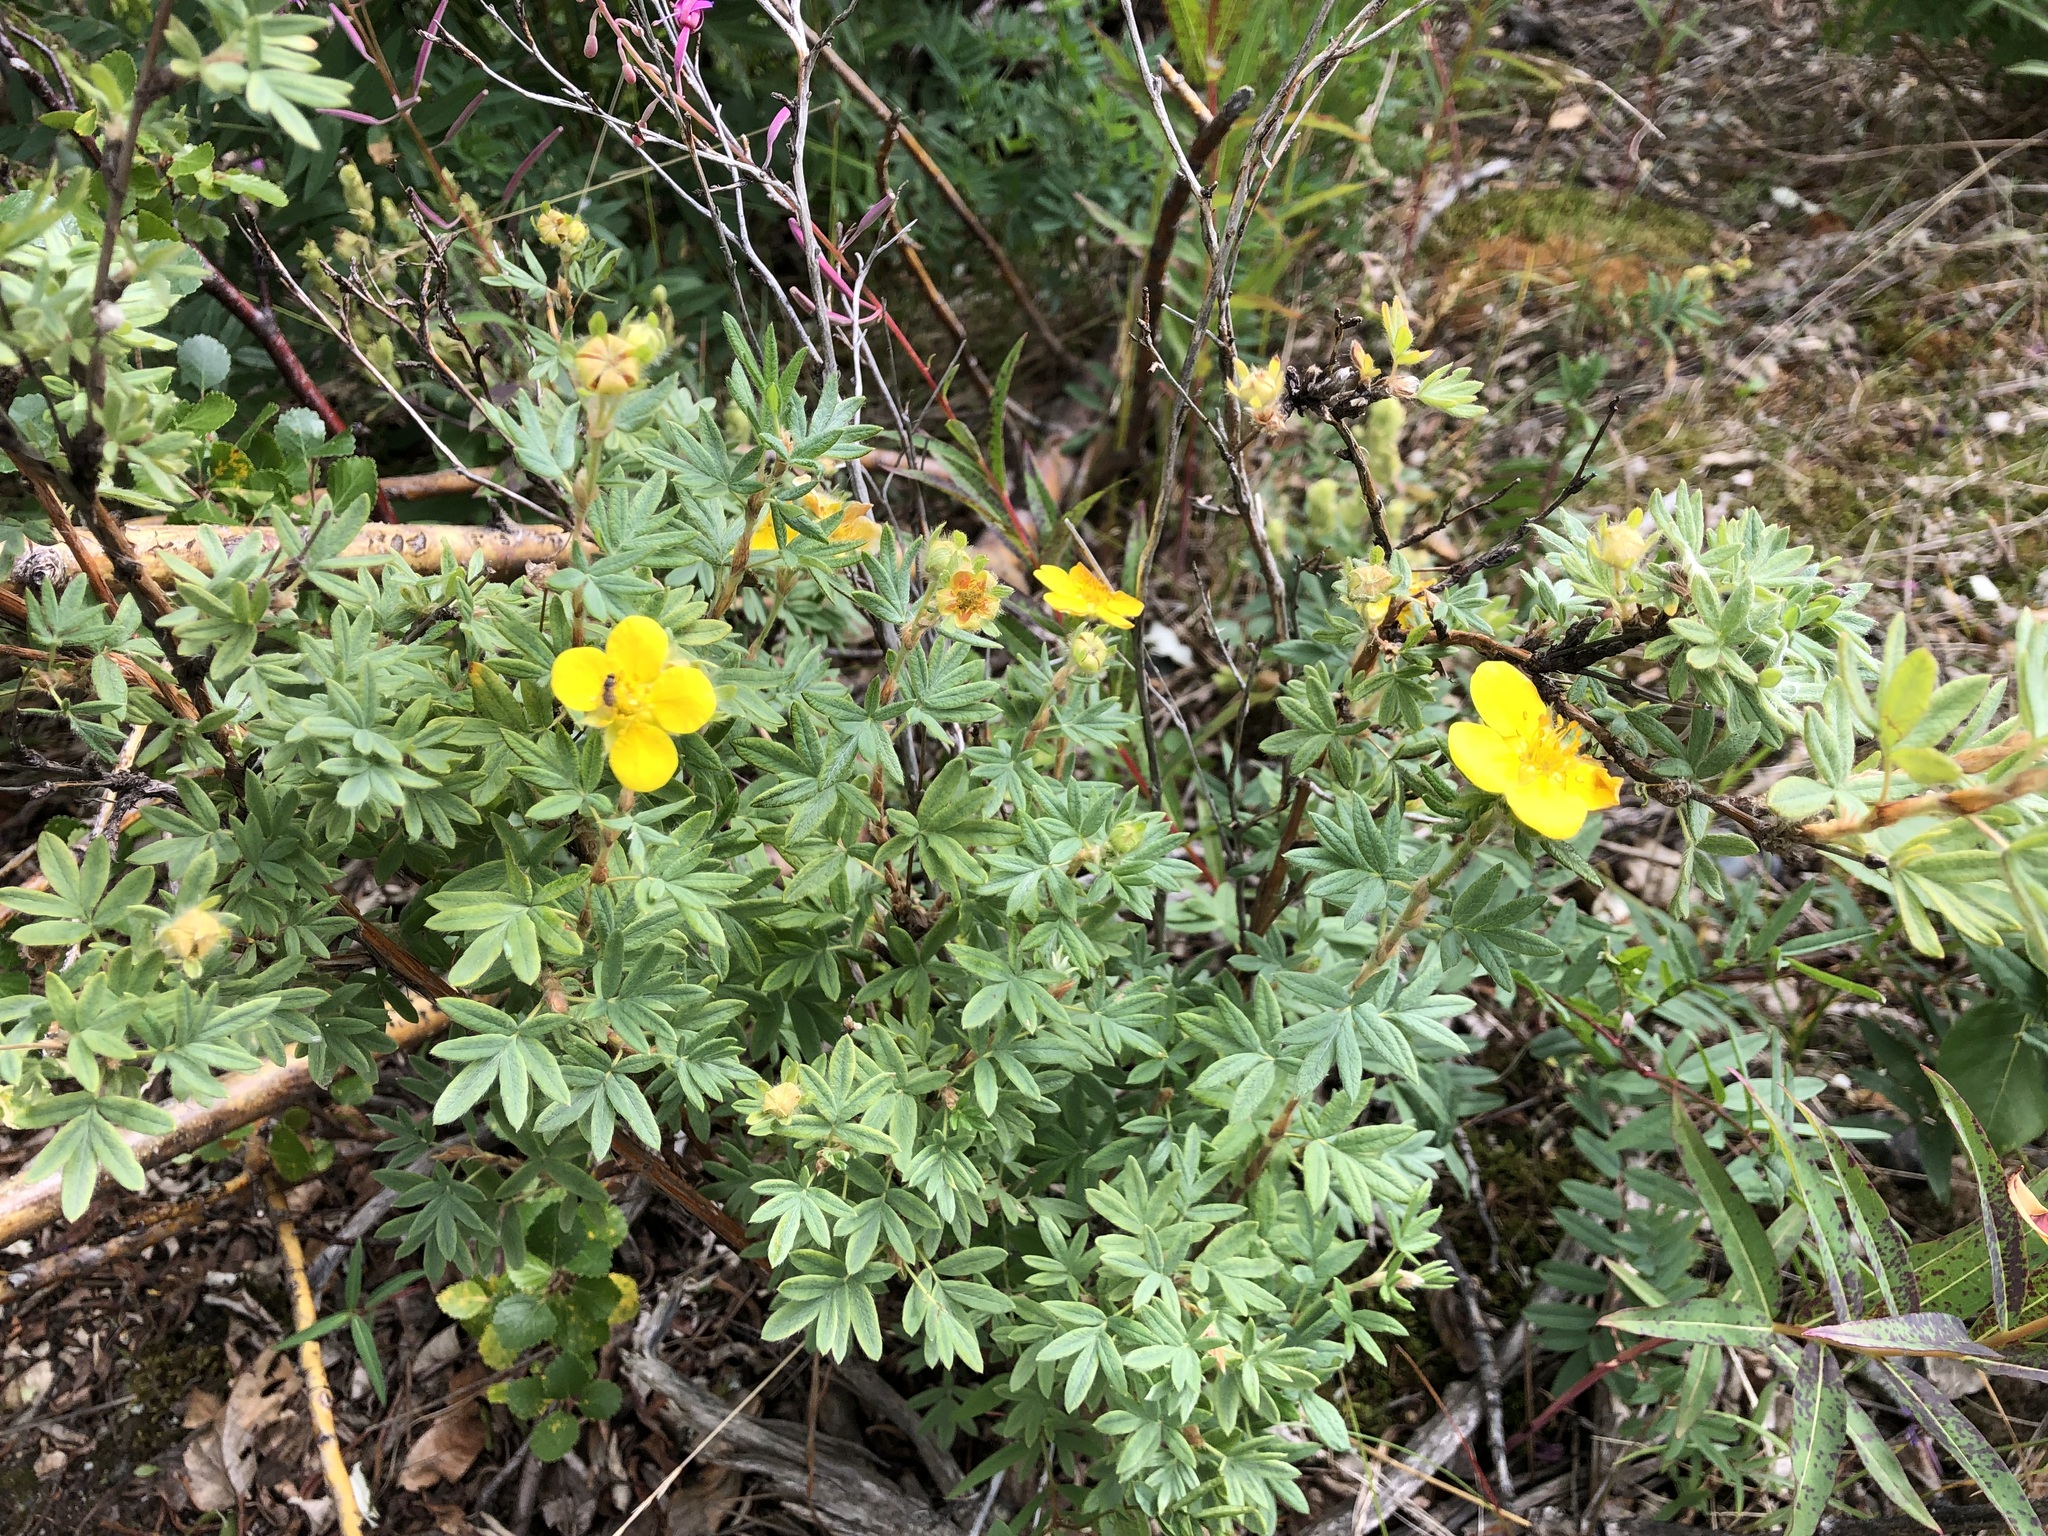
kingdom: Plantae
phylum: Tracheophyta
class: Magnoliopsida
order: Rosales
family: Rosaceae
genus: Dasiphora
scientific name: Dasiphora fruticosa
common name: Shrubby cinquefoil
